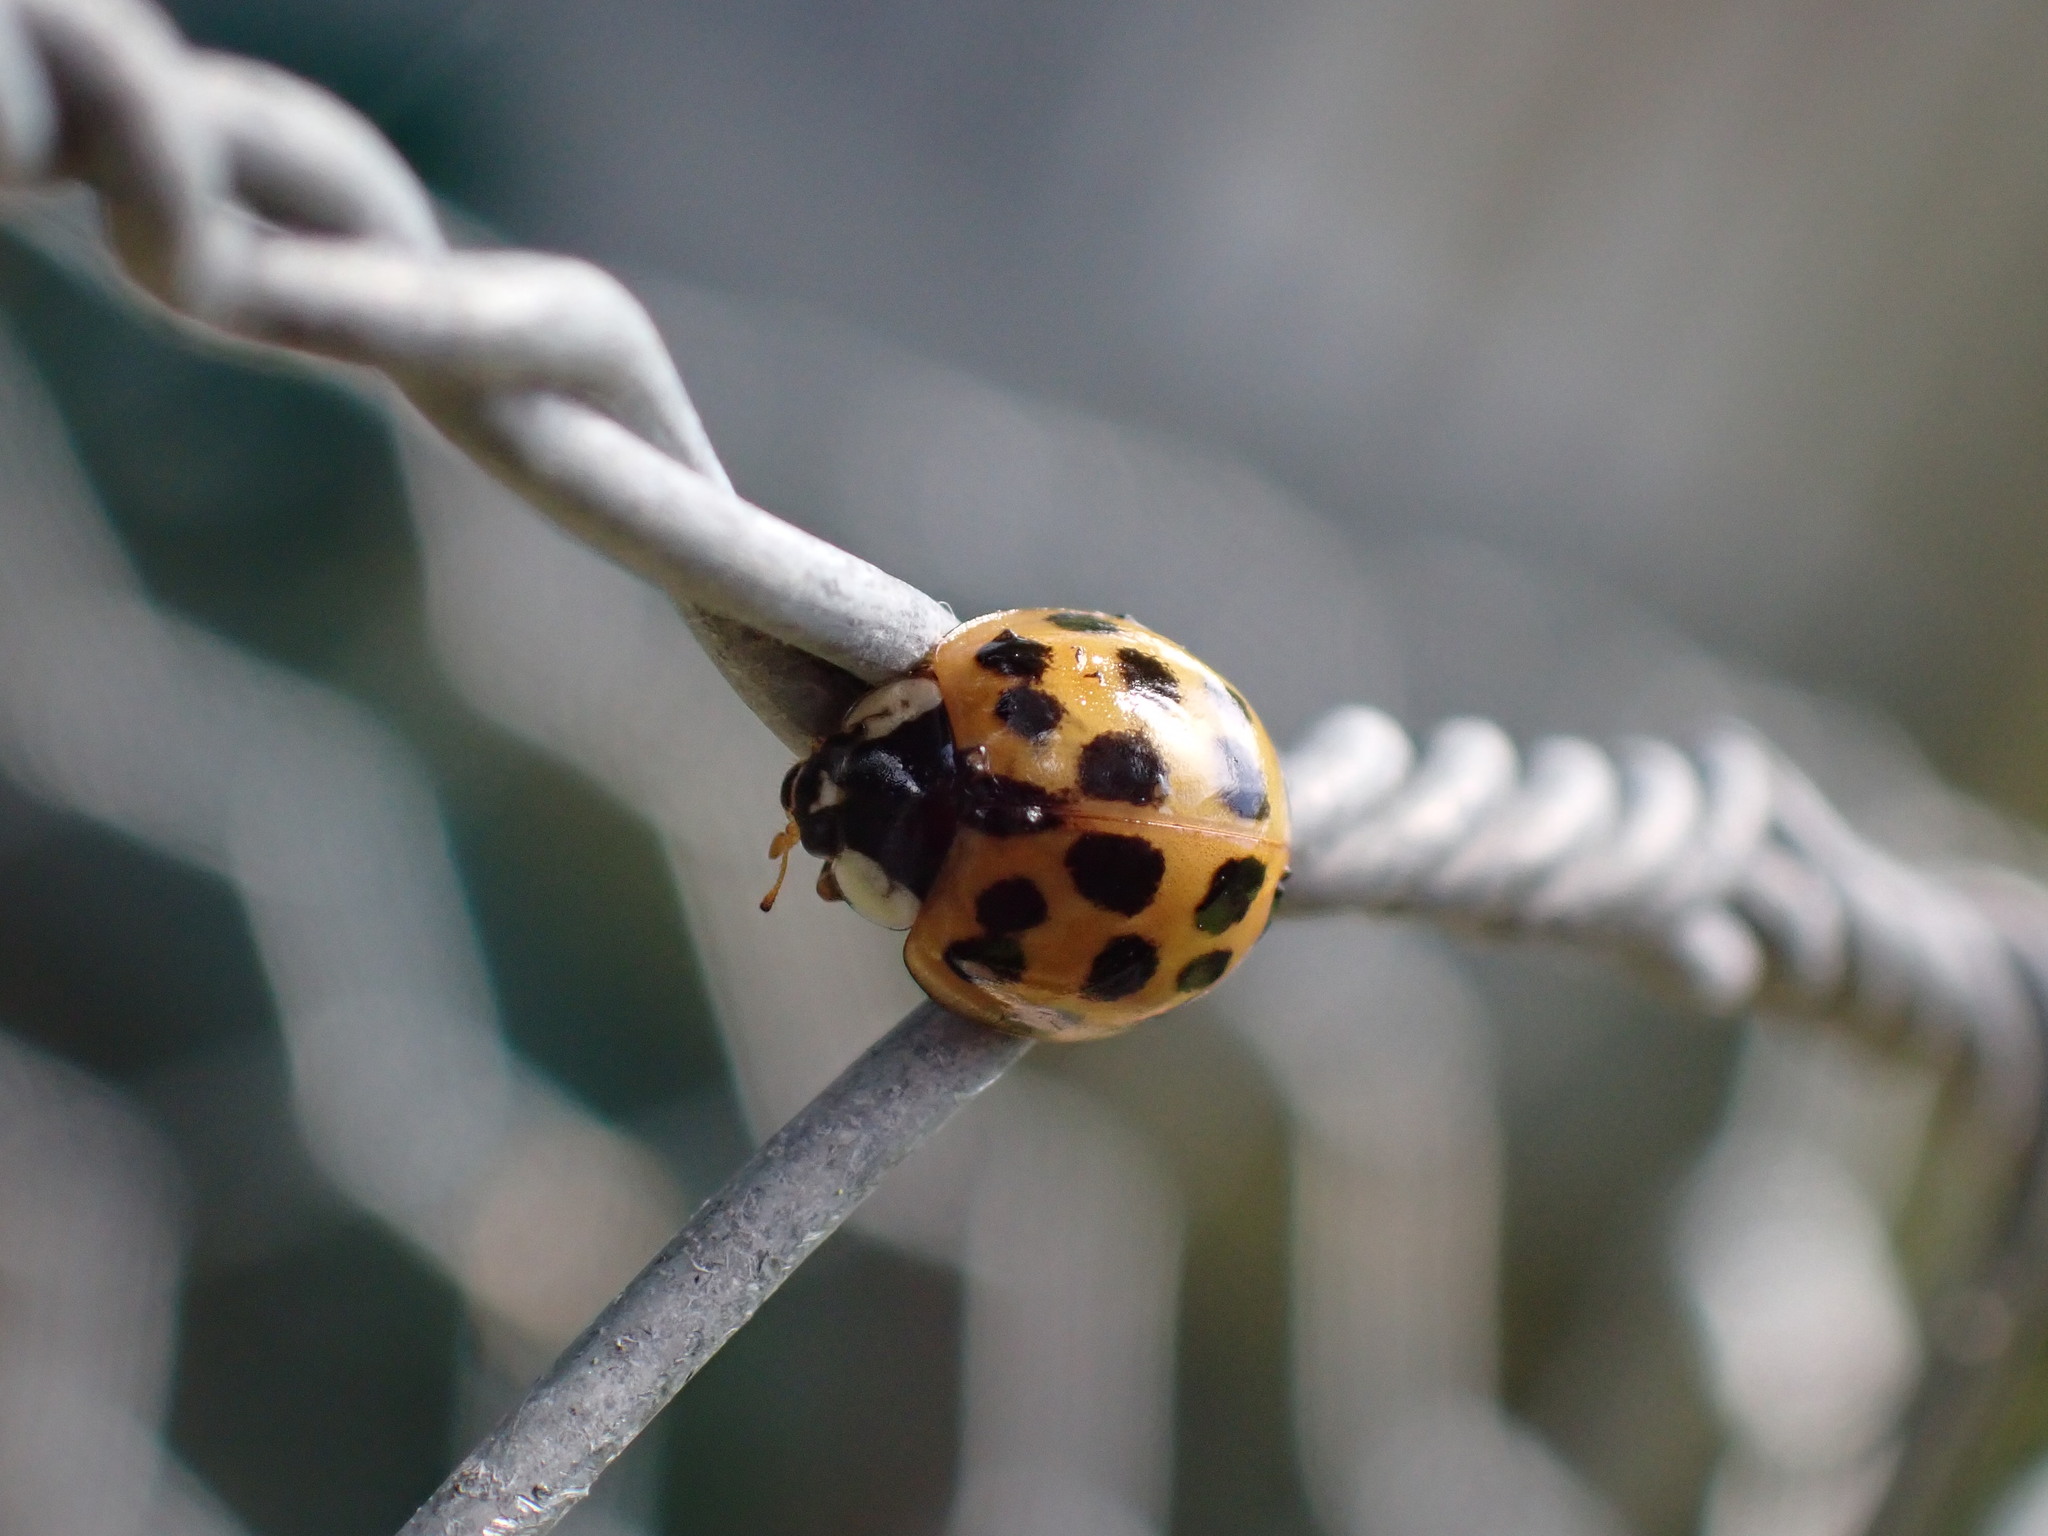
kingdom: Animalia
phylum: Arthropoda
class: Insecta
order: Coleoptera
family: Coccinellidae
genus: Harmonia
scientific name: Harmonia axyridis
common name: Harlequin ladybird
